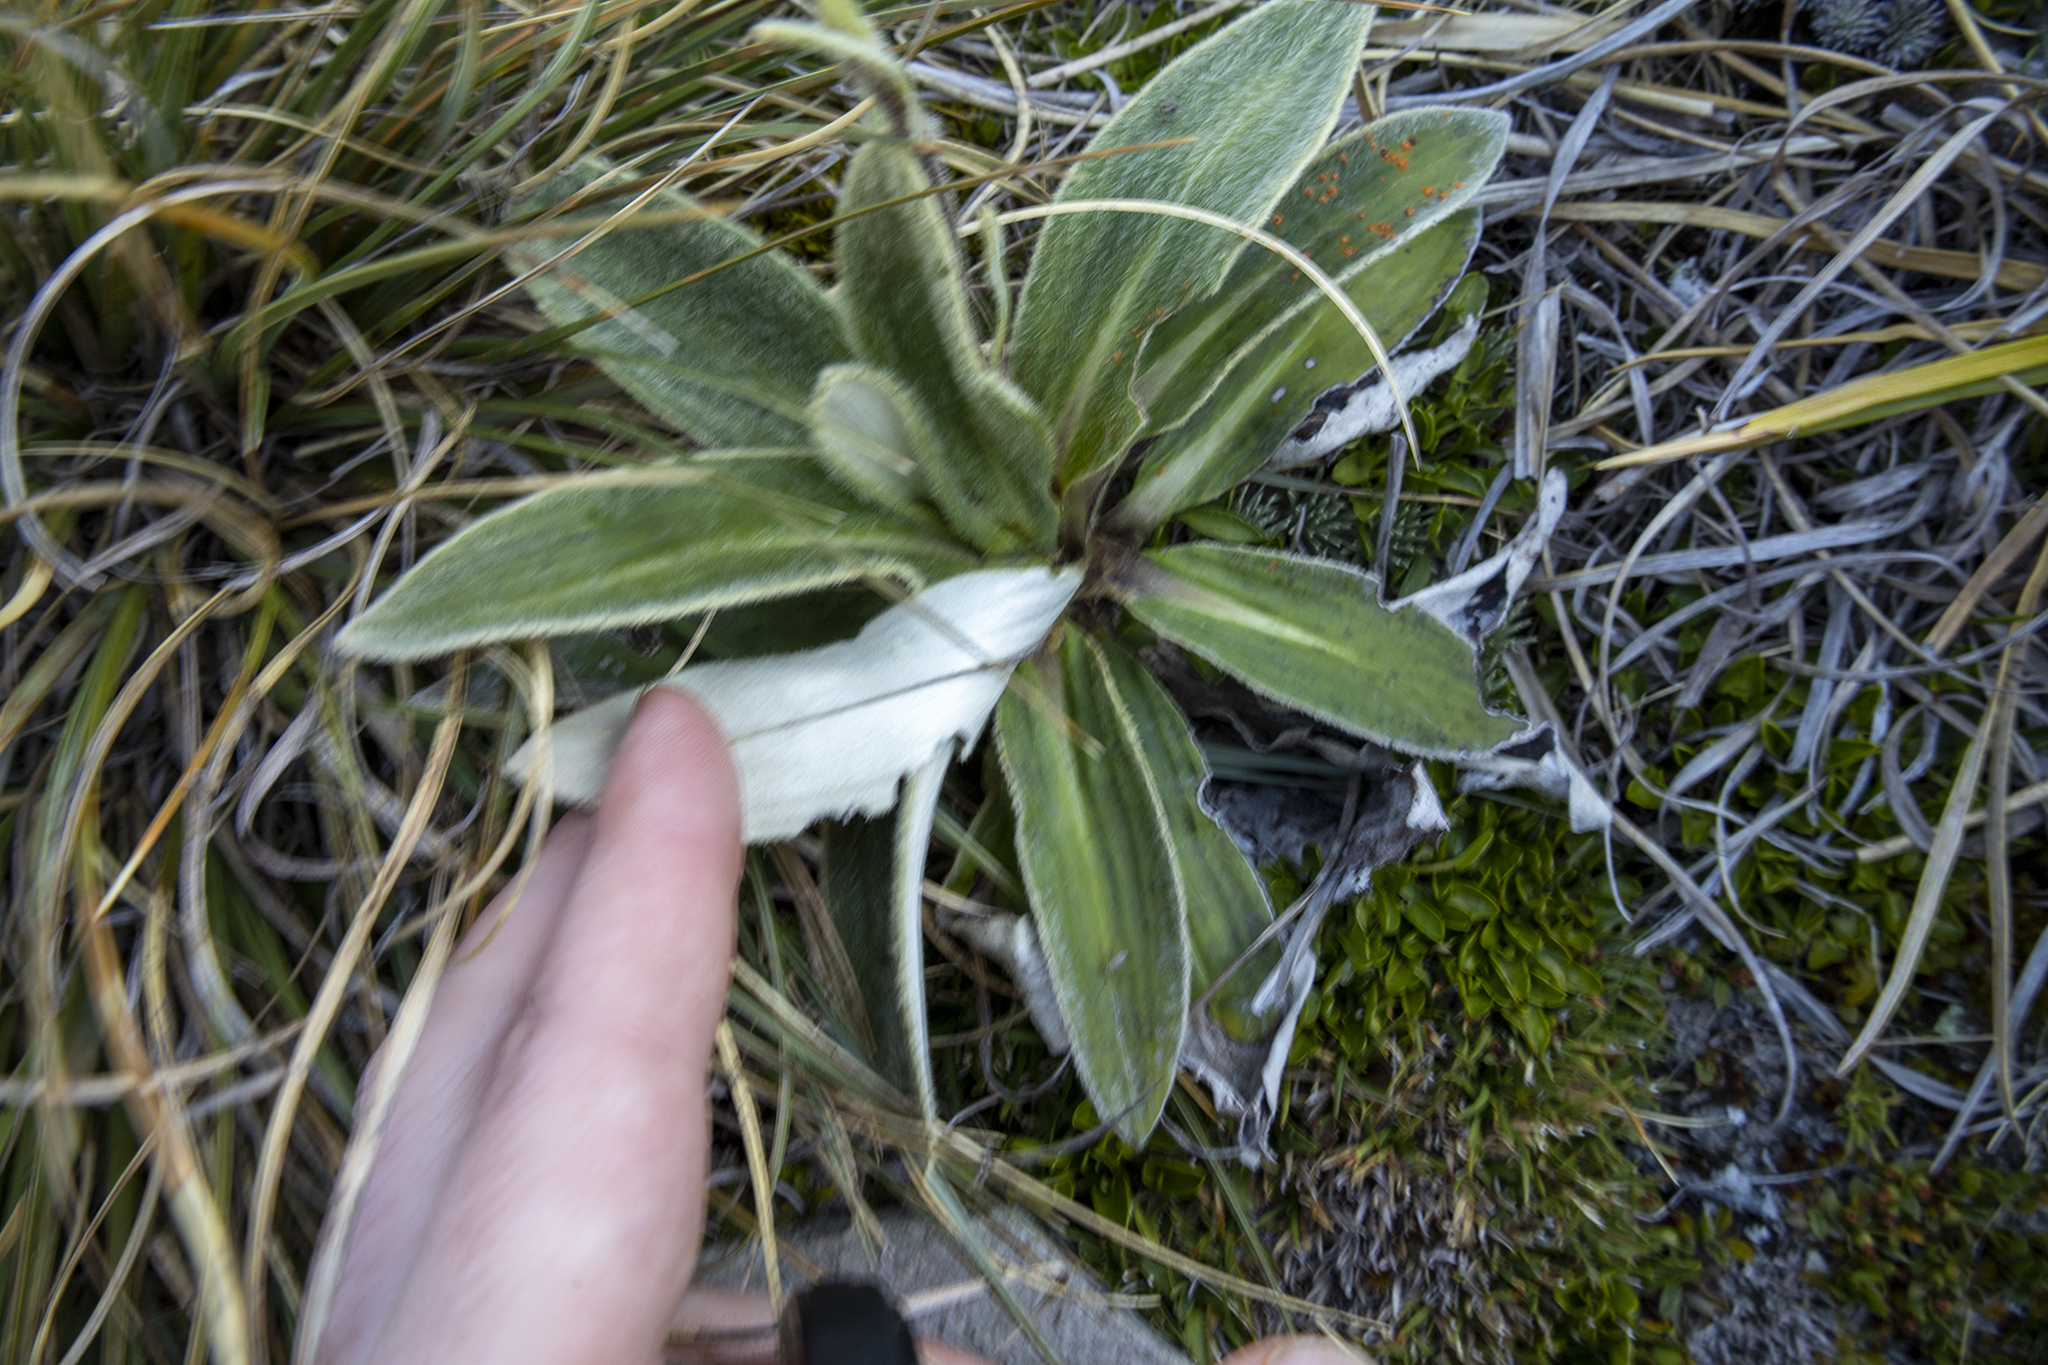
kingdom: Plantae
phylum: Tracheophyta
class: Magnoliopsida
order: Asterales
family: Asteraceae
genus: Celmisia
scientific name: Celmisia verbascifolia
